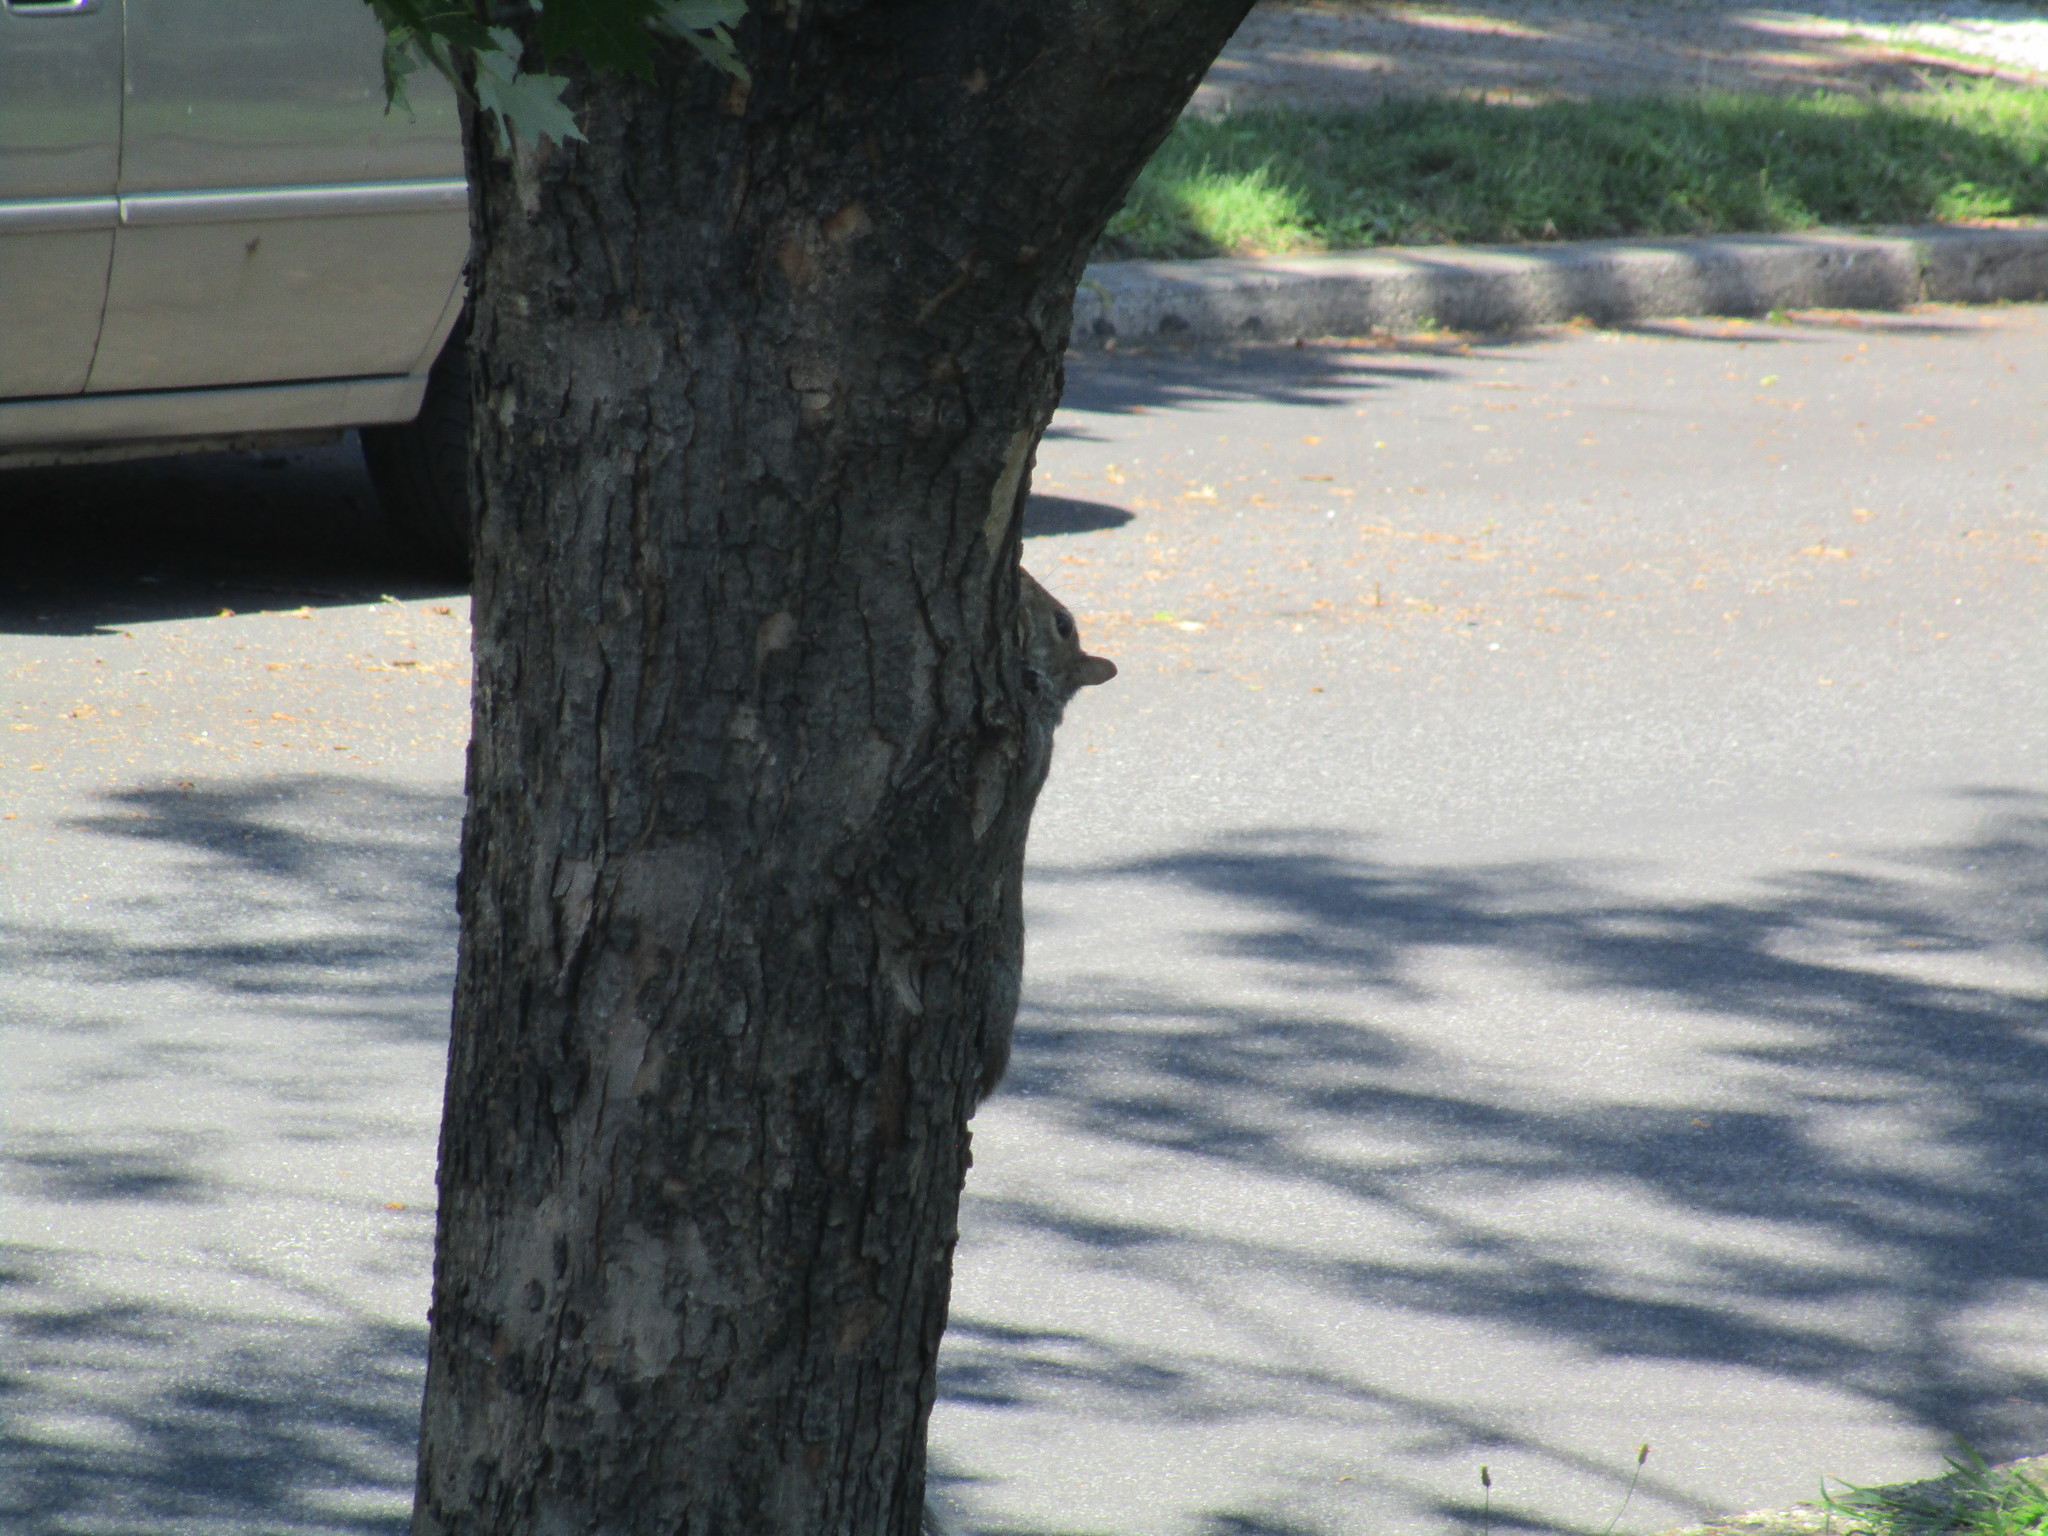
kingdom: Animalia
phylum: Chordata
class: Mammalia
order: Rodentia
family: Sciuridae
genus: Sciurus
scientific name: Sciurus carolinensis
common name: Eastern gray squirrel
